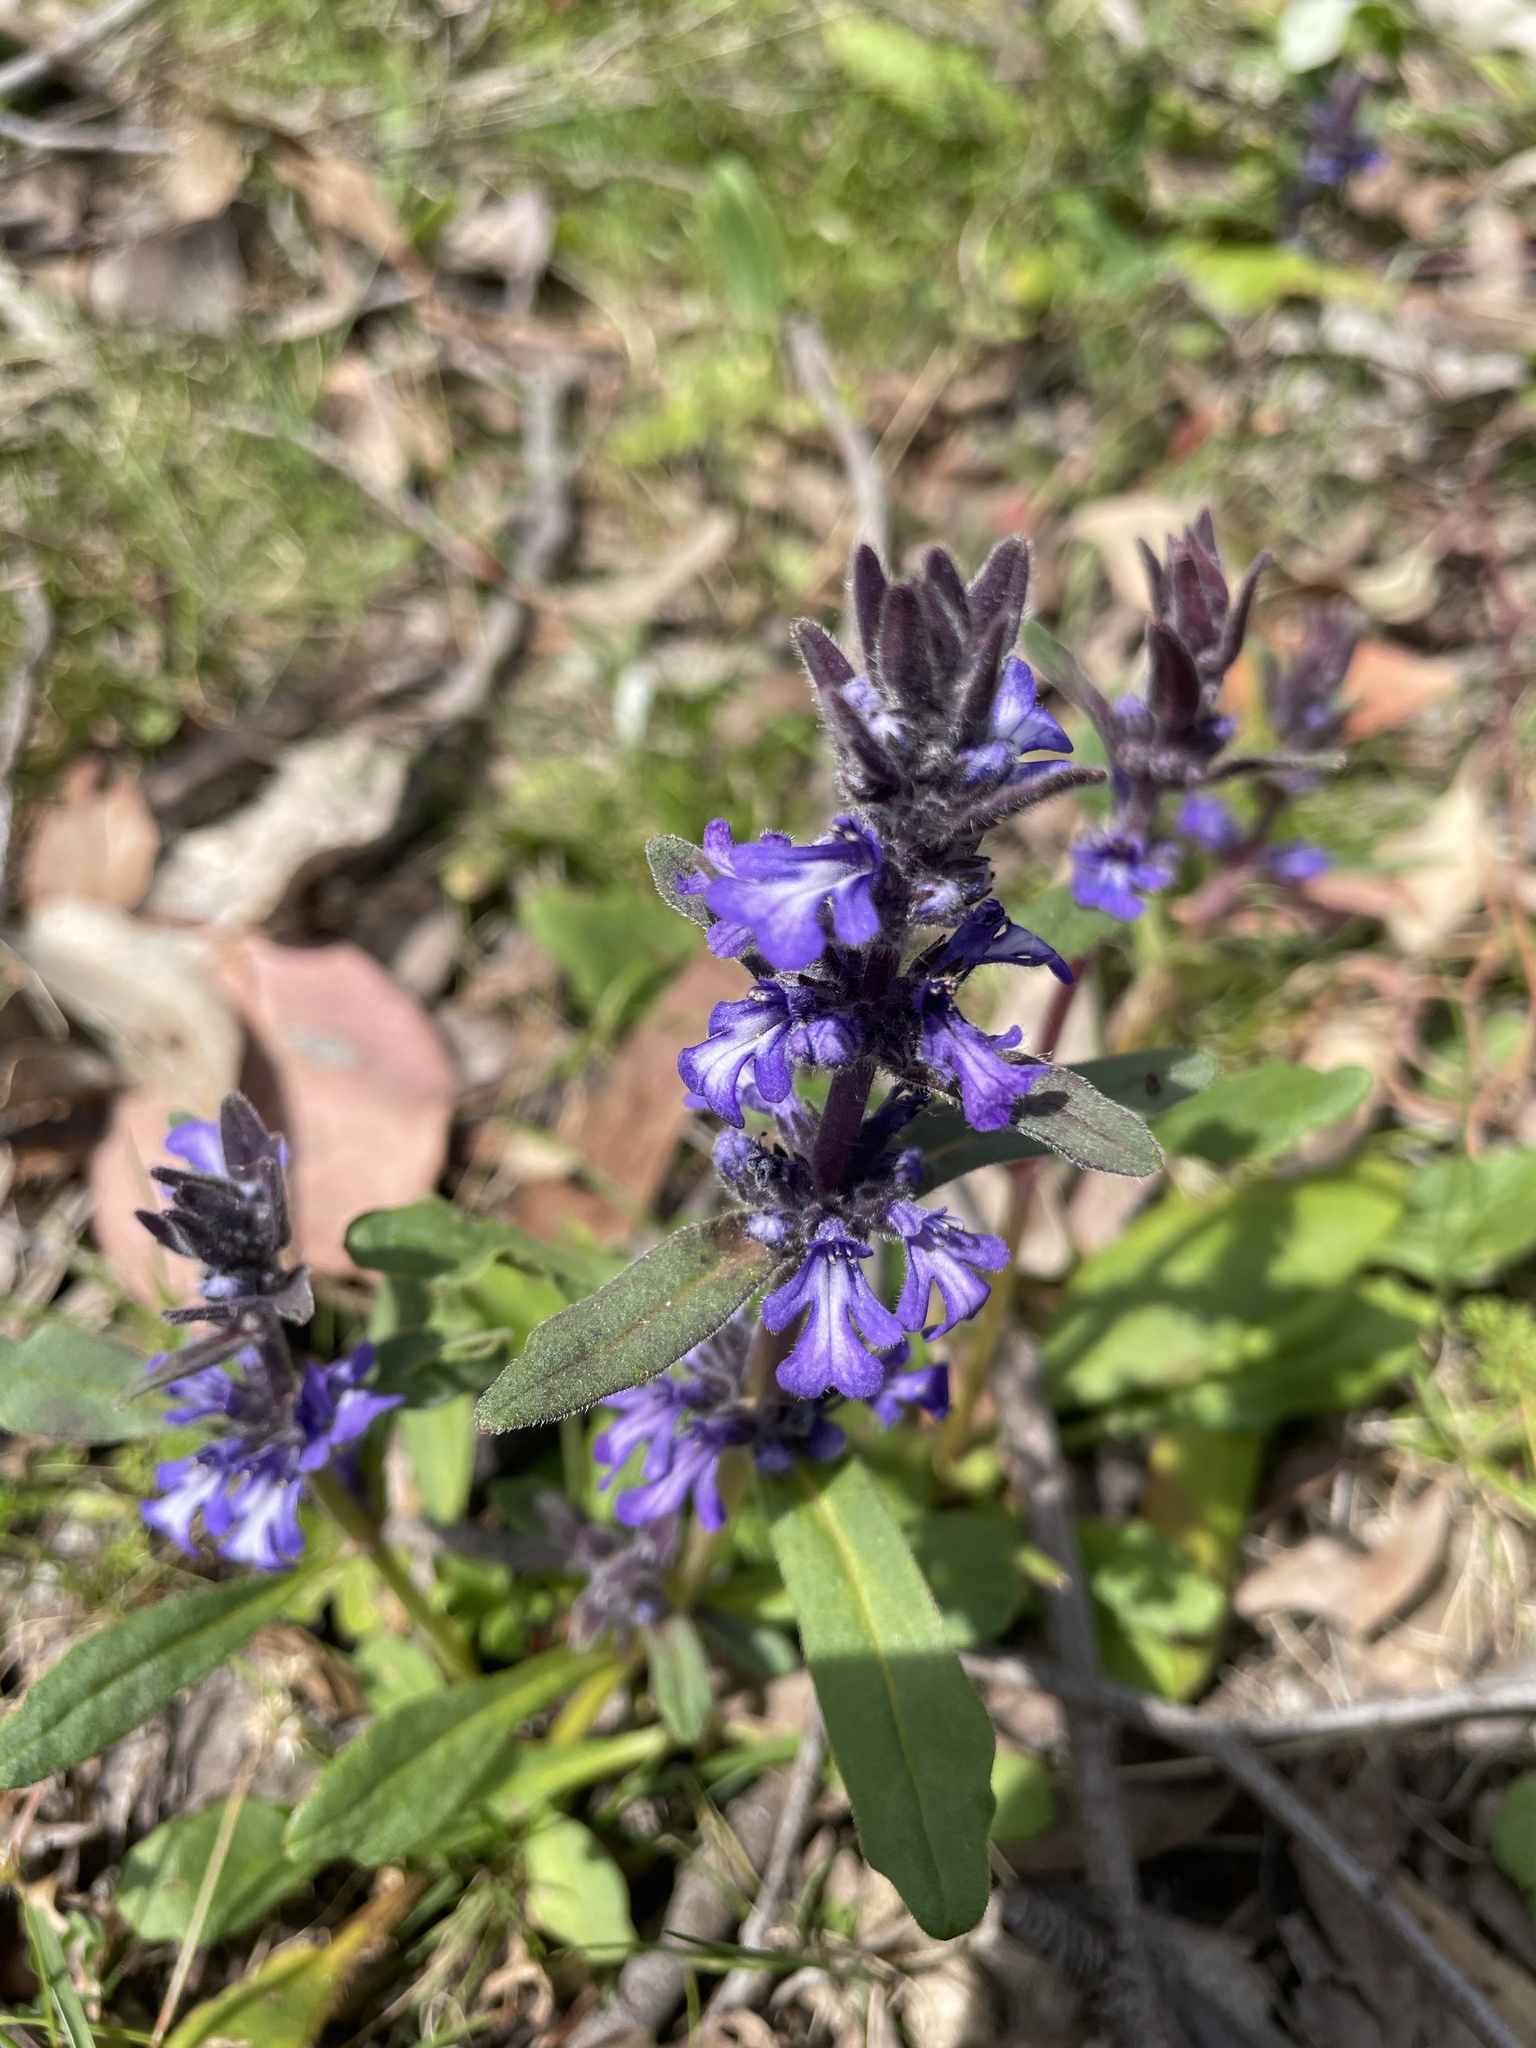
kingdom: Plantae
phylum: Tracheophyta
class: Magnoliopsida
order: Lamiales
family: Lamiaceae
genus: Ajuga
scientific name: Ajuga australis
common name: Australian bugle
